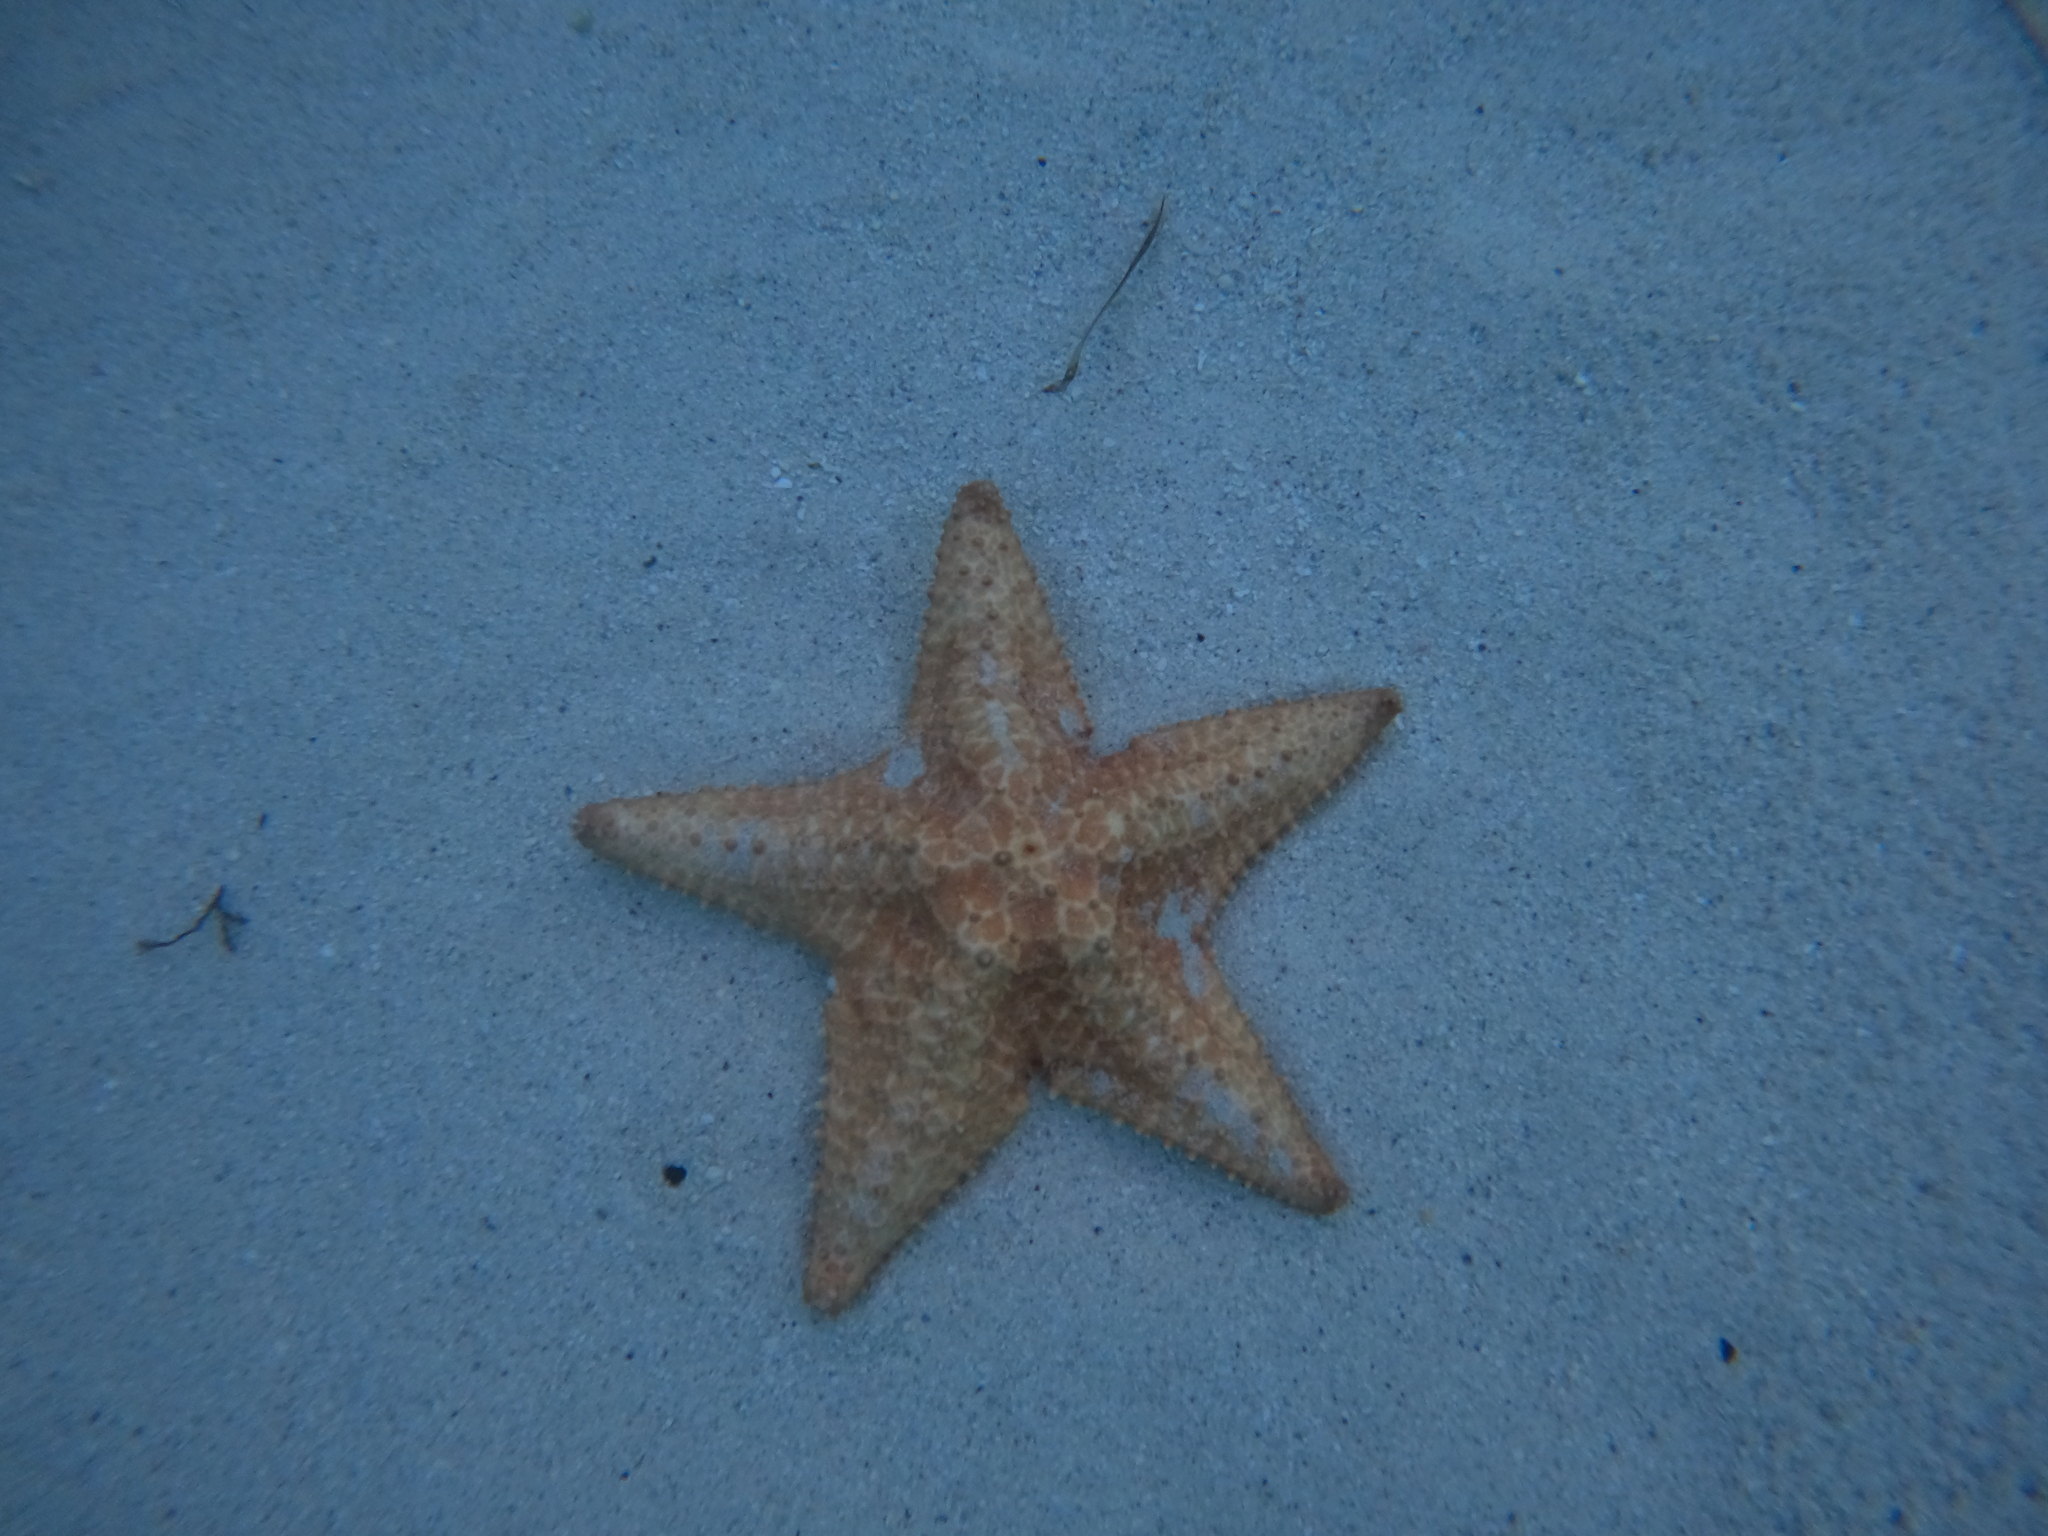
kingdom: Animalia
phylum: Echinodermata
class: Asteroidea
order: Valvatida
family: Oreasteridae
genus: Oreaster
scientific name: Oreaster reticulatus
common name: Cushion sea star
